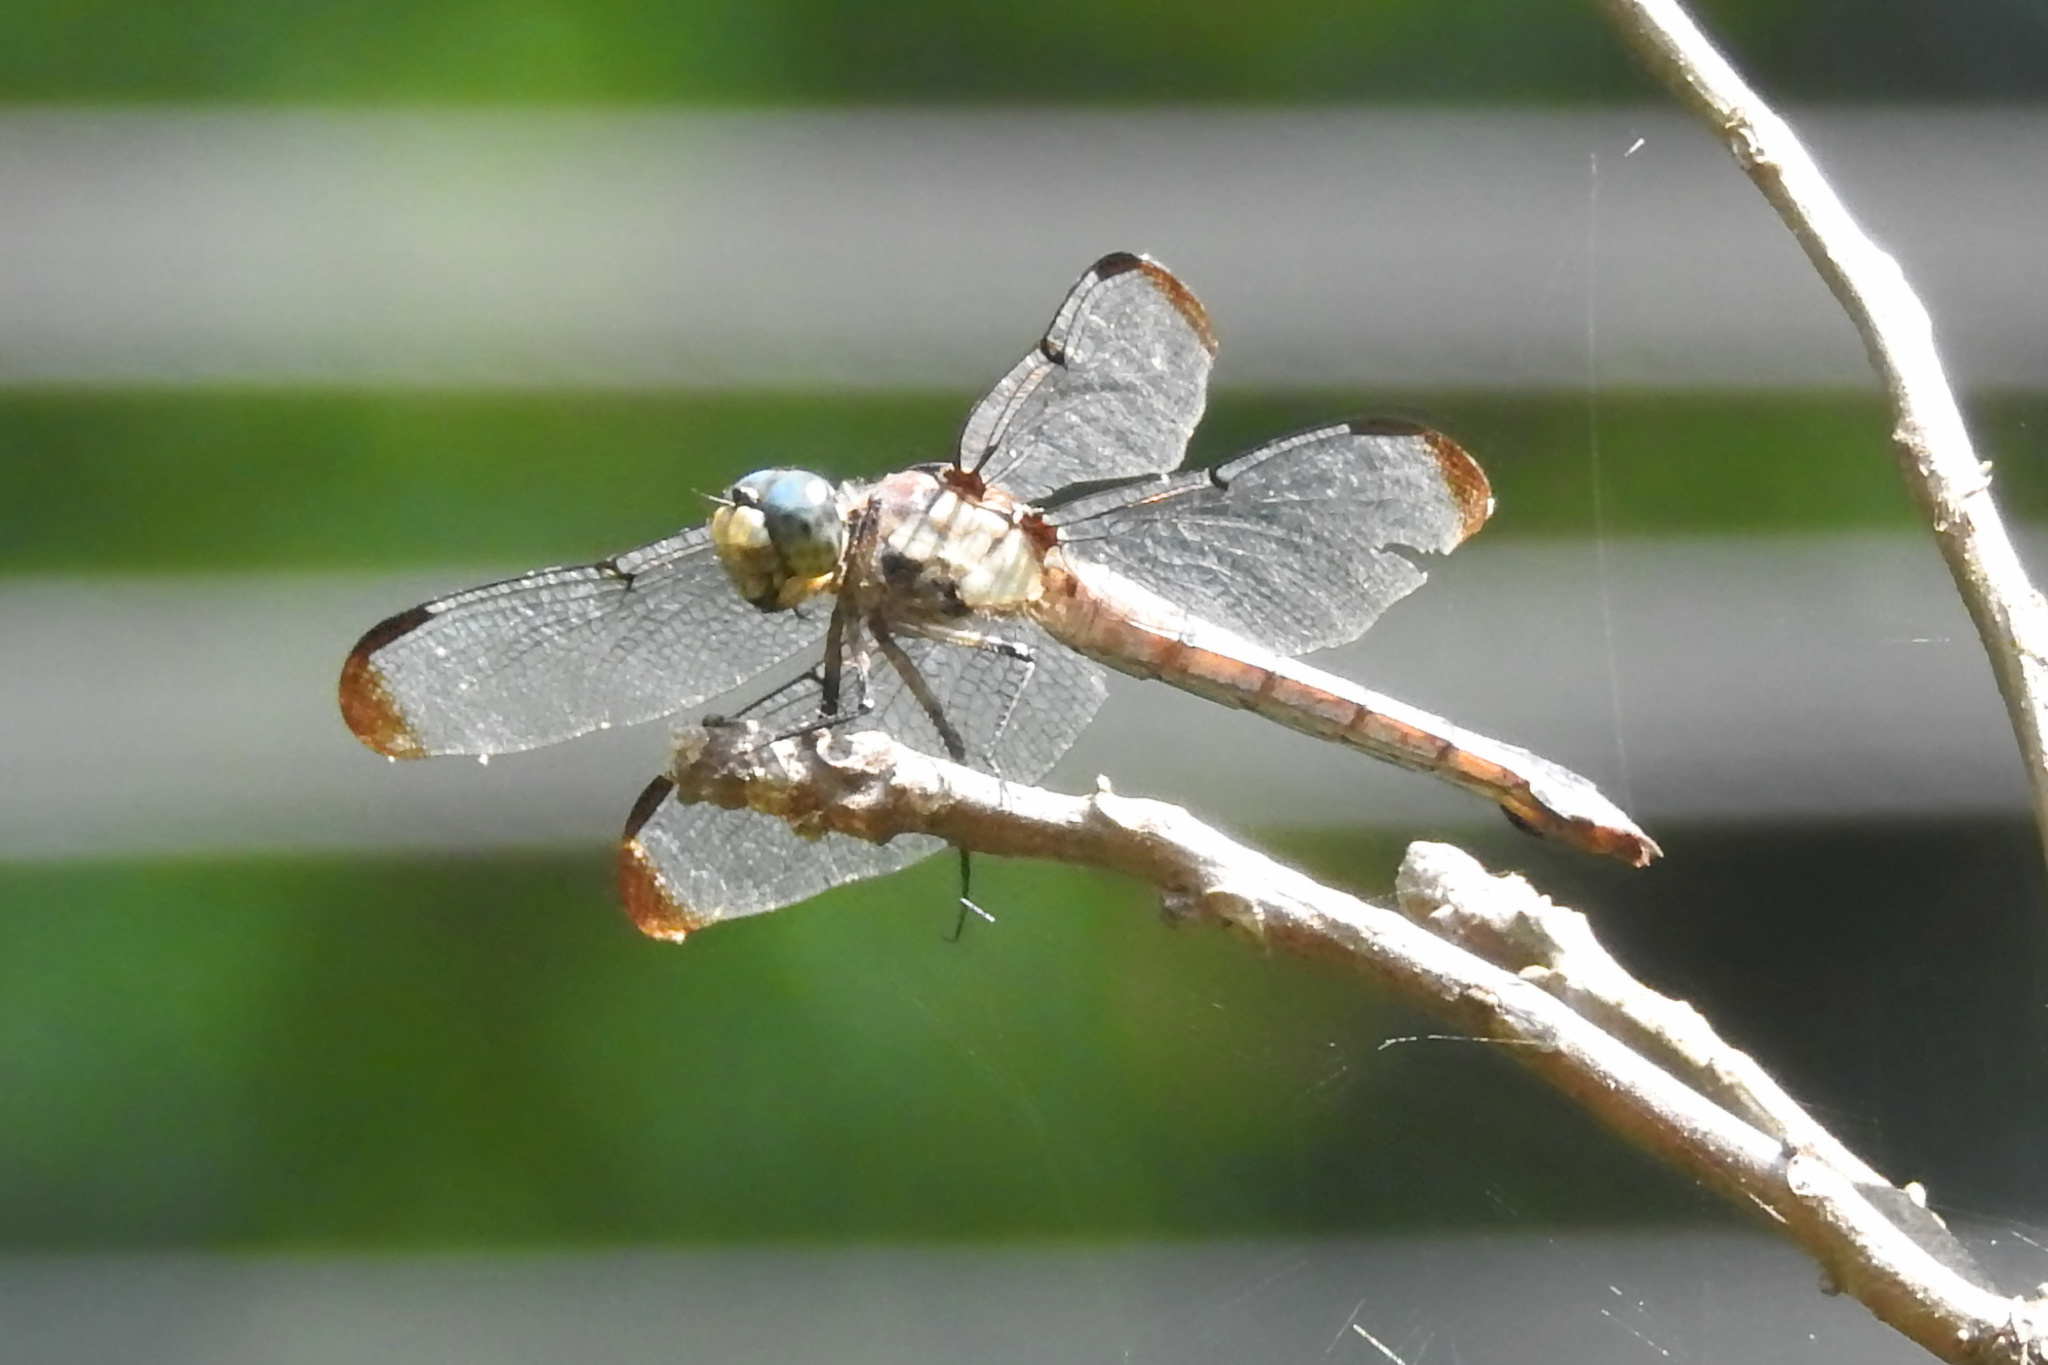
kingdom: Animalia
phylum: Arthropoda
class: Insecta
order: Odonata
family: Libellulidae
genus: Libellula
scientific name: Libellula vibrans
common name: Great blue skimmer
